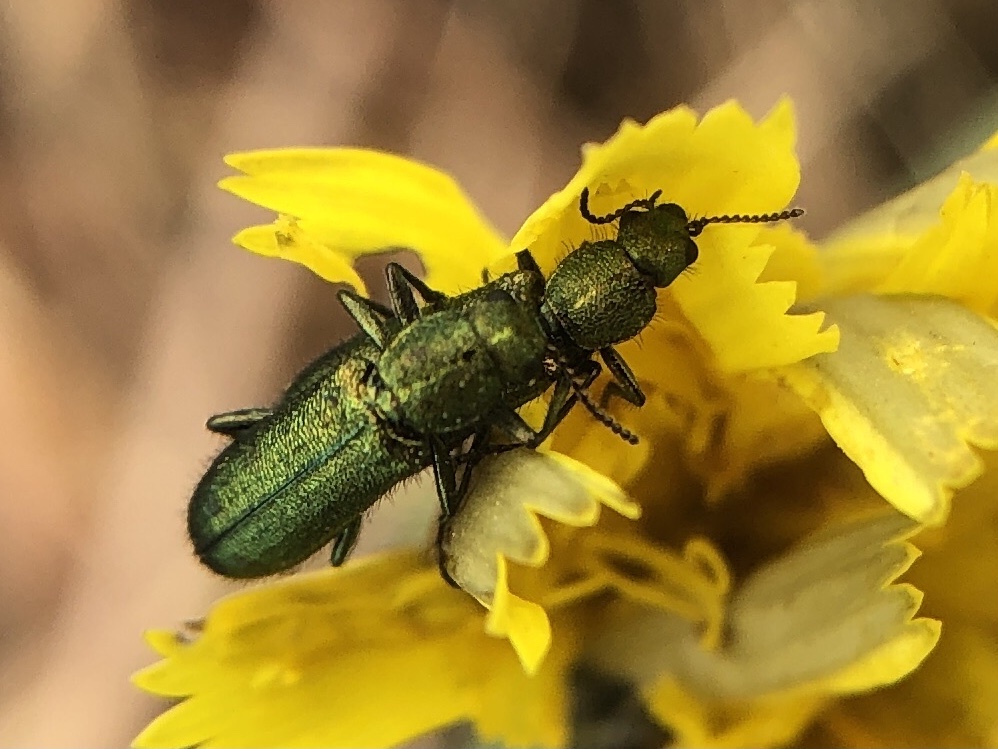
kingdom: Animalia
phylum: Arthropoda
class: Insecta
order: Coleoptera
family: Dasytidae
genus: Psilothrix
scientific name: Psilothrix viridicoerulea
